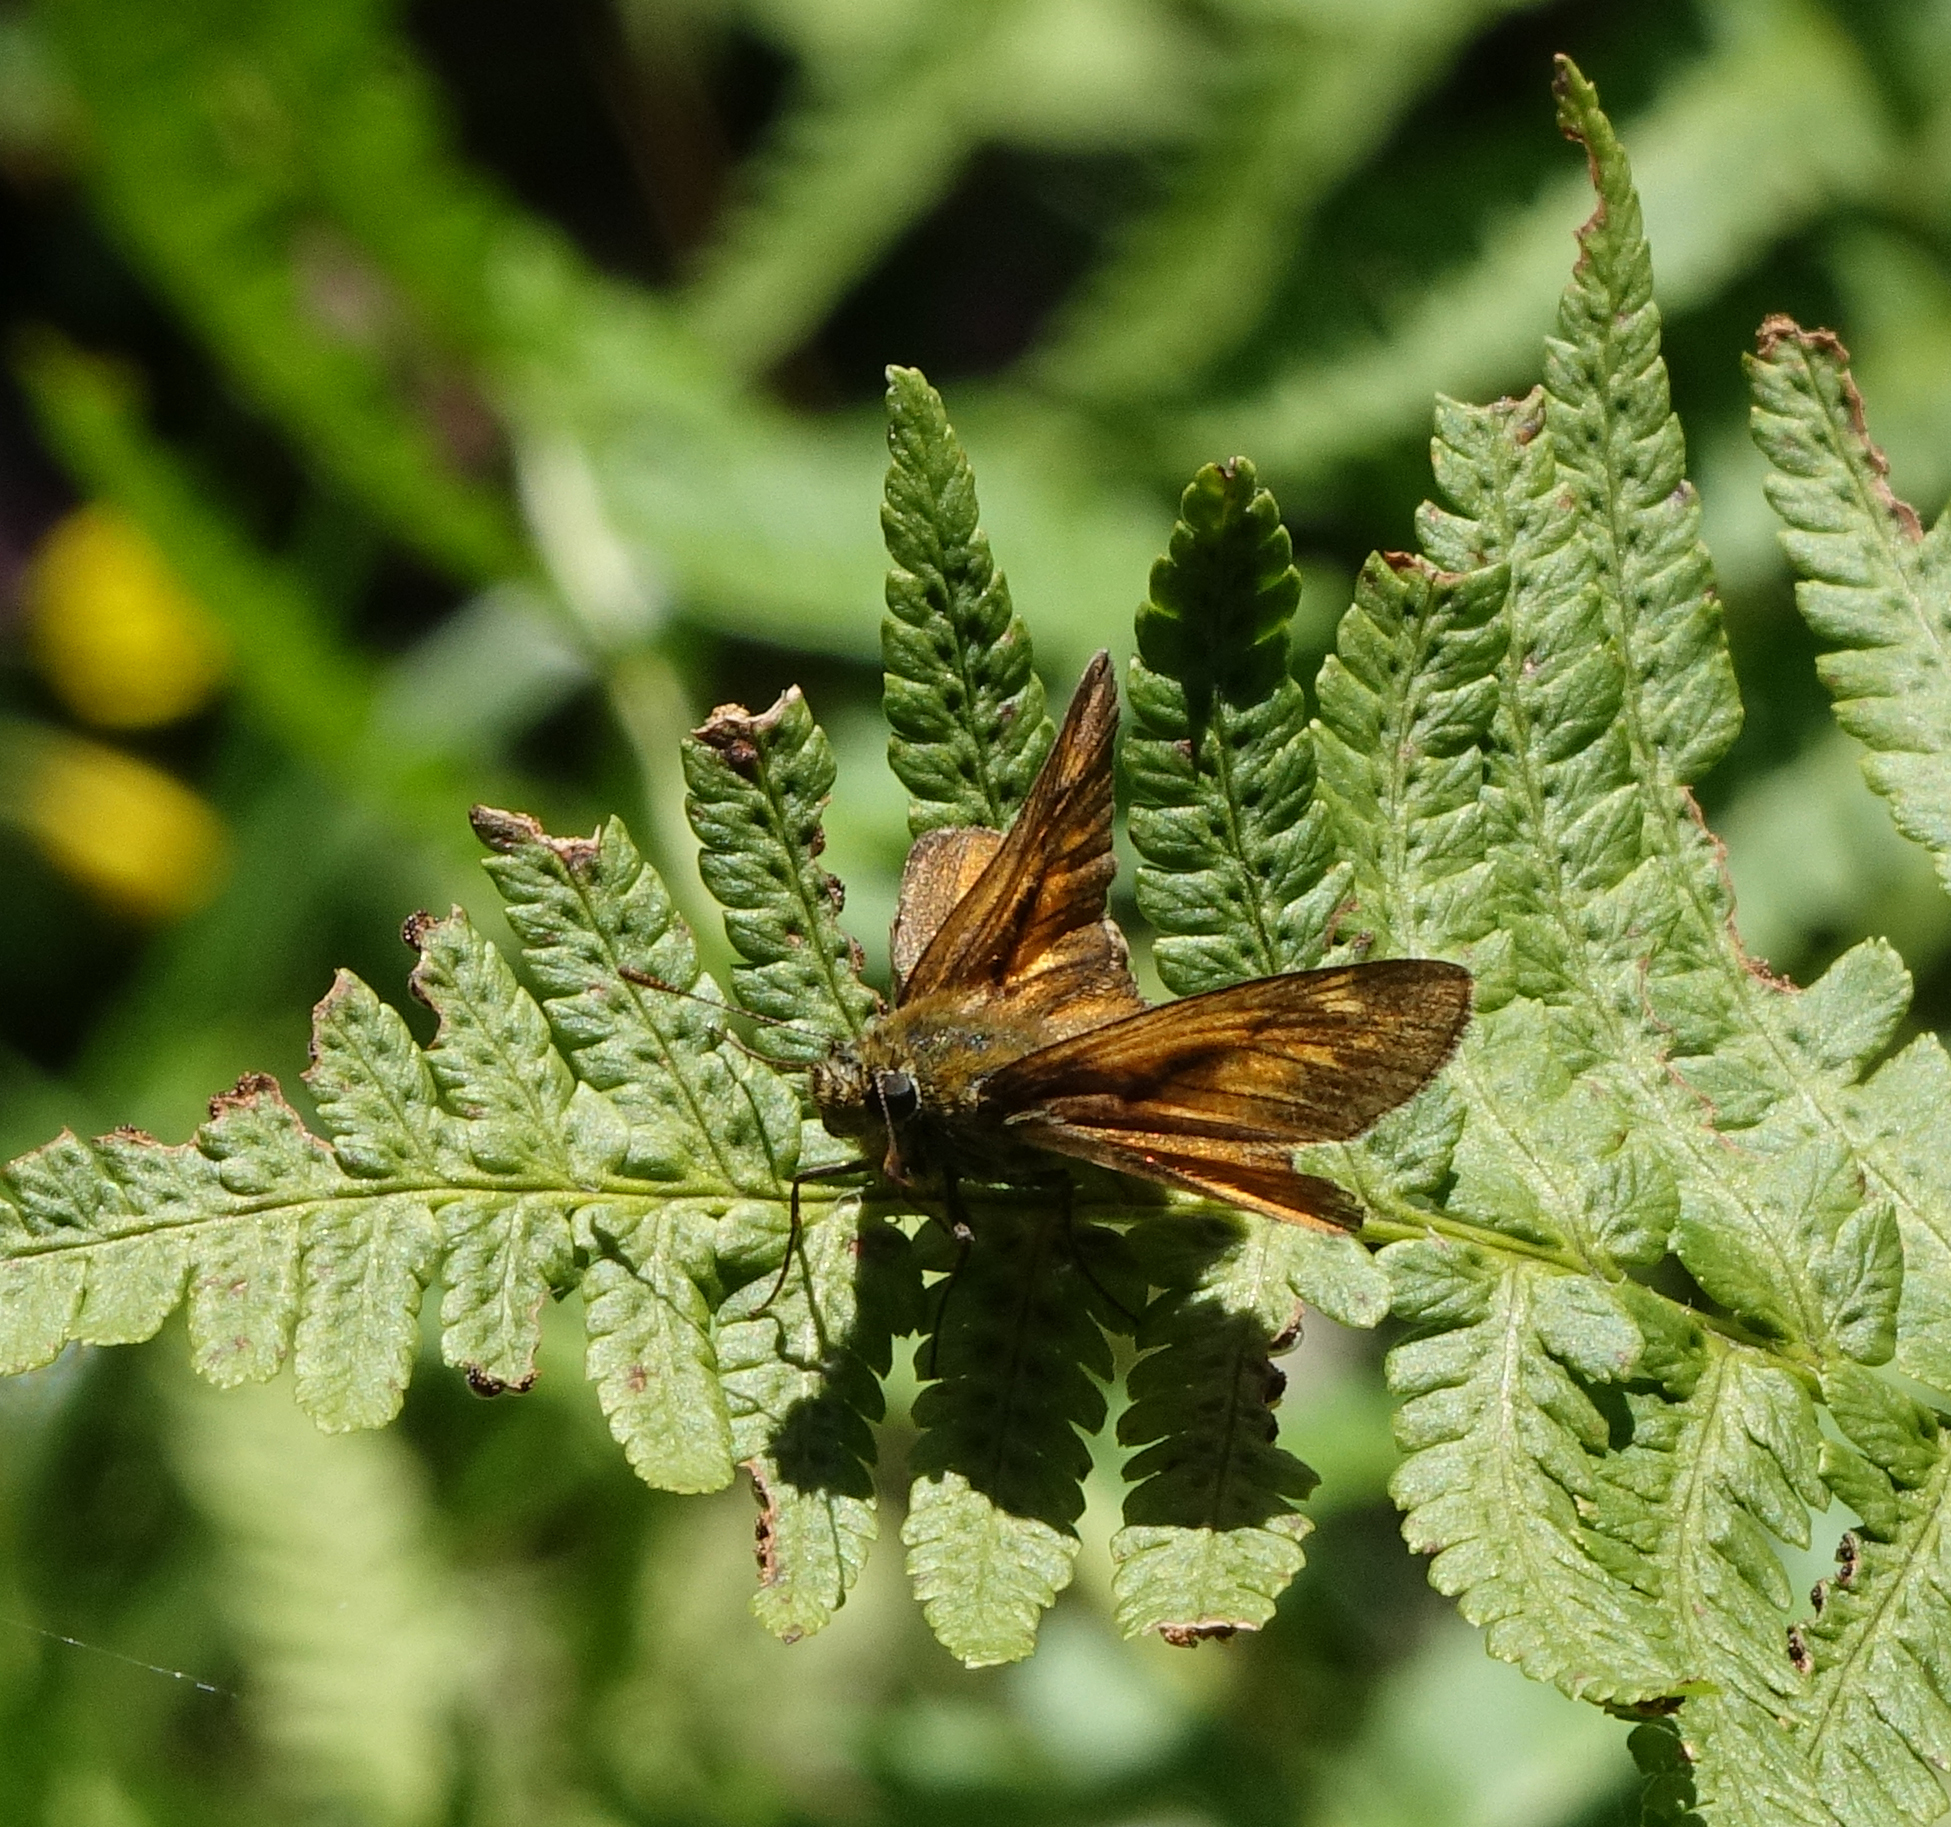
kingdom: Animalia
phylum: Arthropoda
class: Insecta
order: Lepidoptera
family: Hesperiidae
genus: Ochlodes
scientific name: Ochlodes venata
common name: Large skipper
